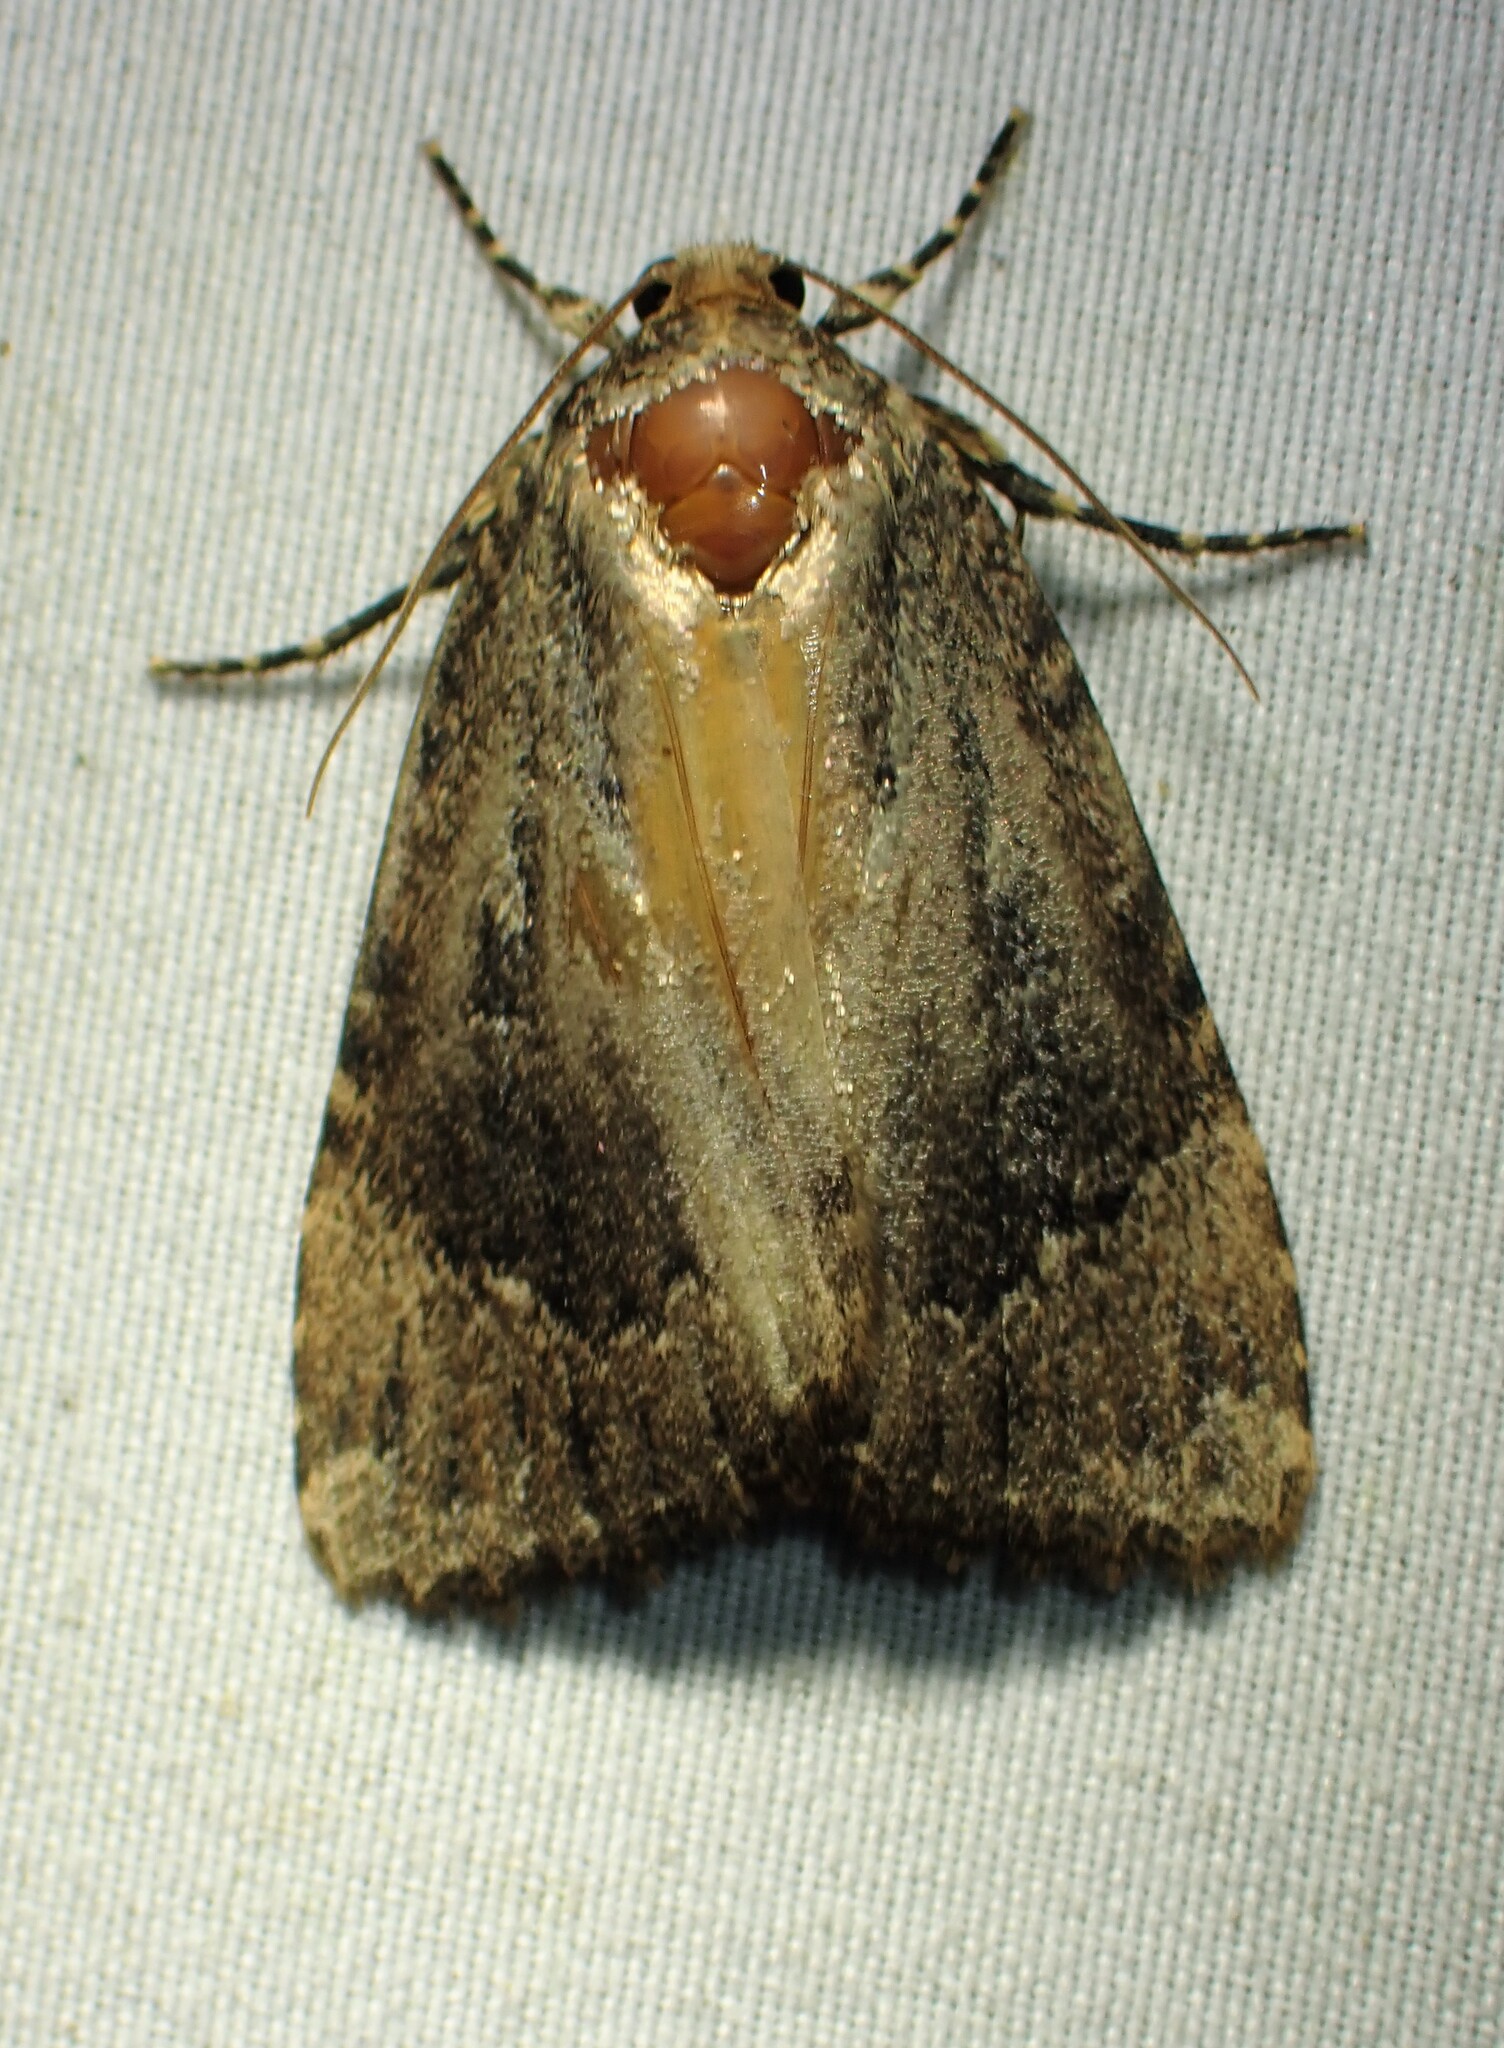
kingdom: Animalia
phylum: Arthropoda
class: Insecta
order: Lepidoptera
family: Noctuidae
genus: Amphipyra
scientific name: Amphipyra pyramidoides
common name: American copper underwing
